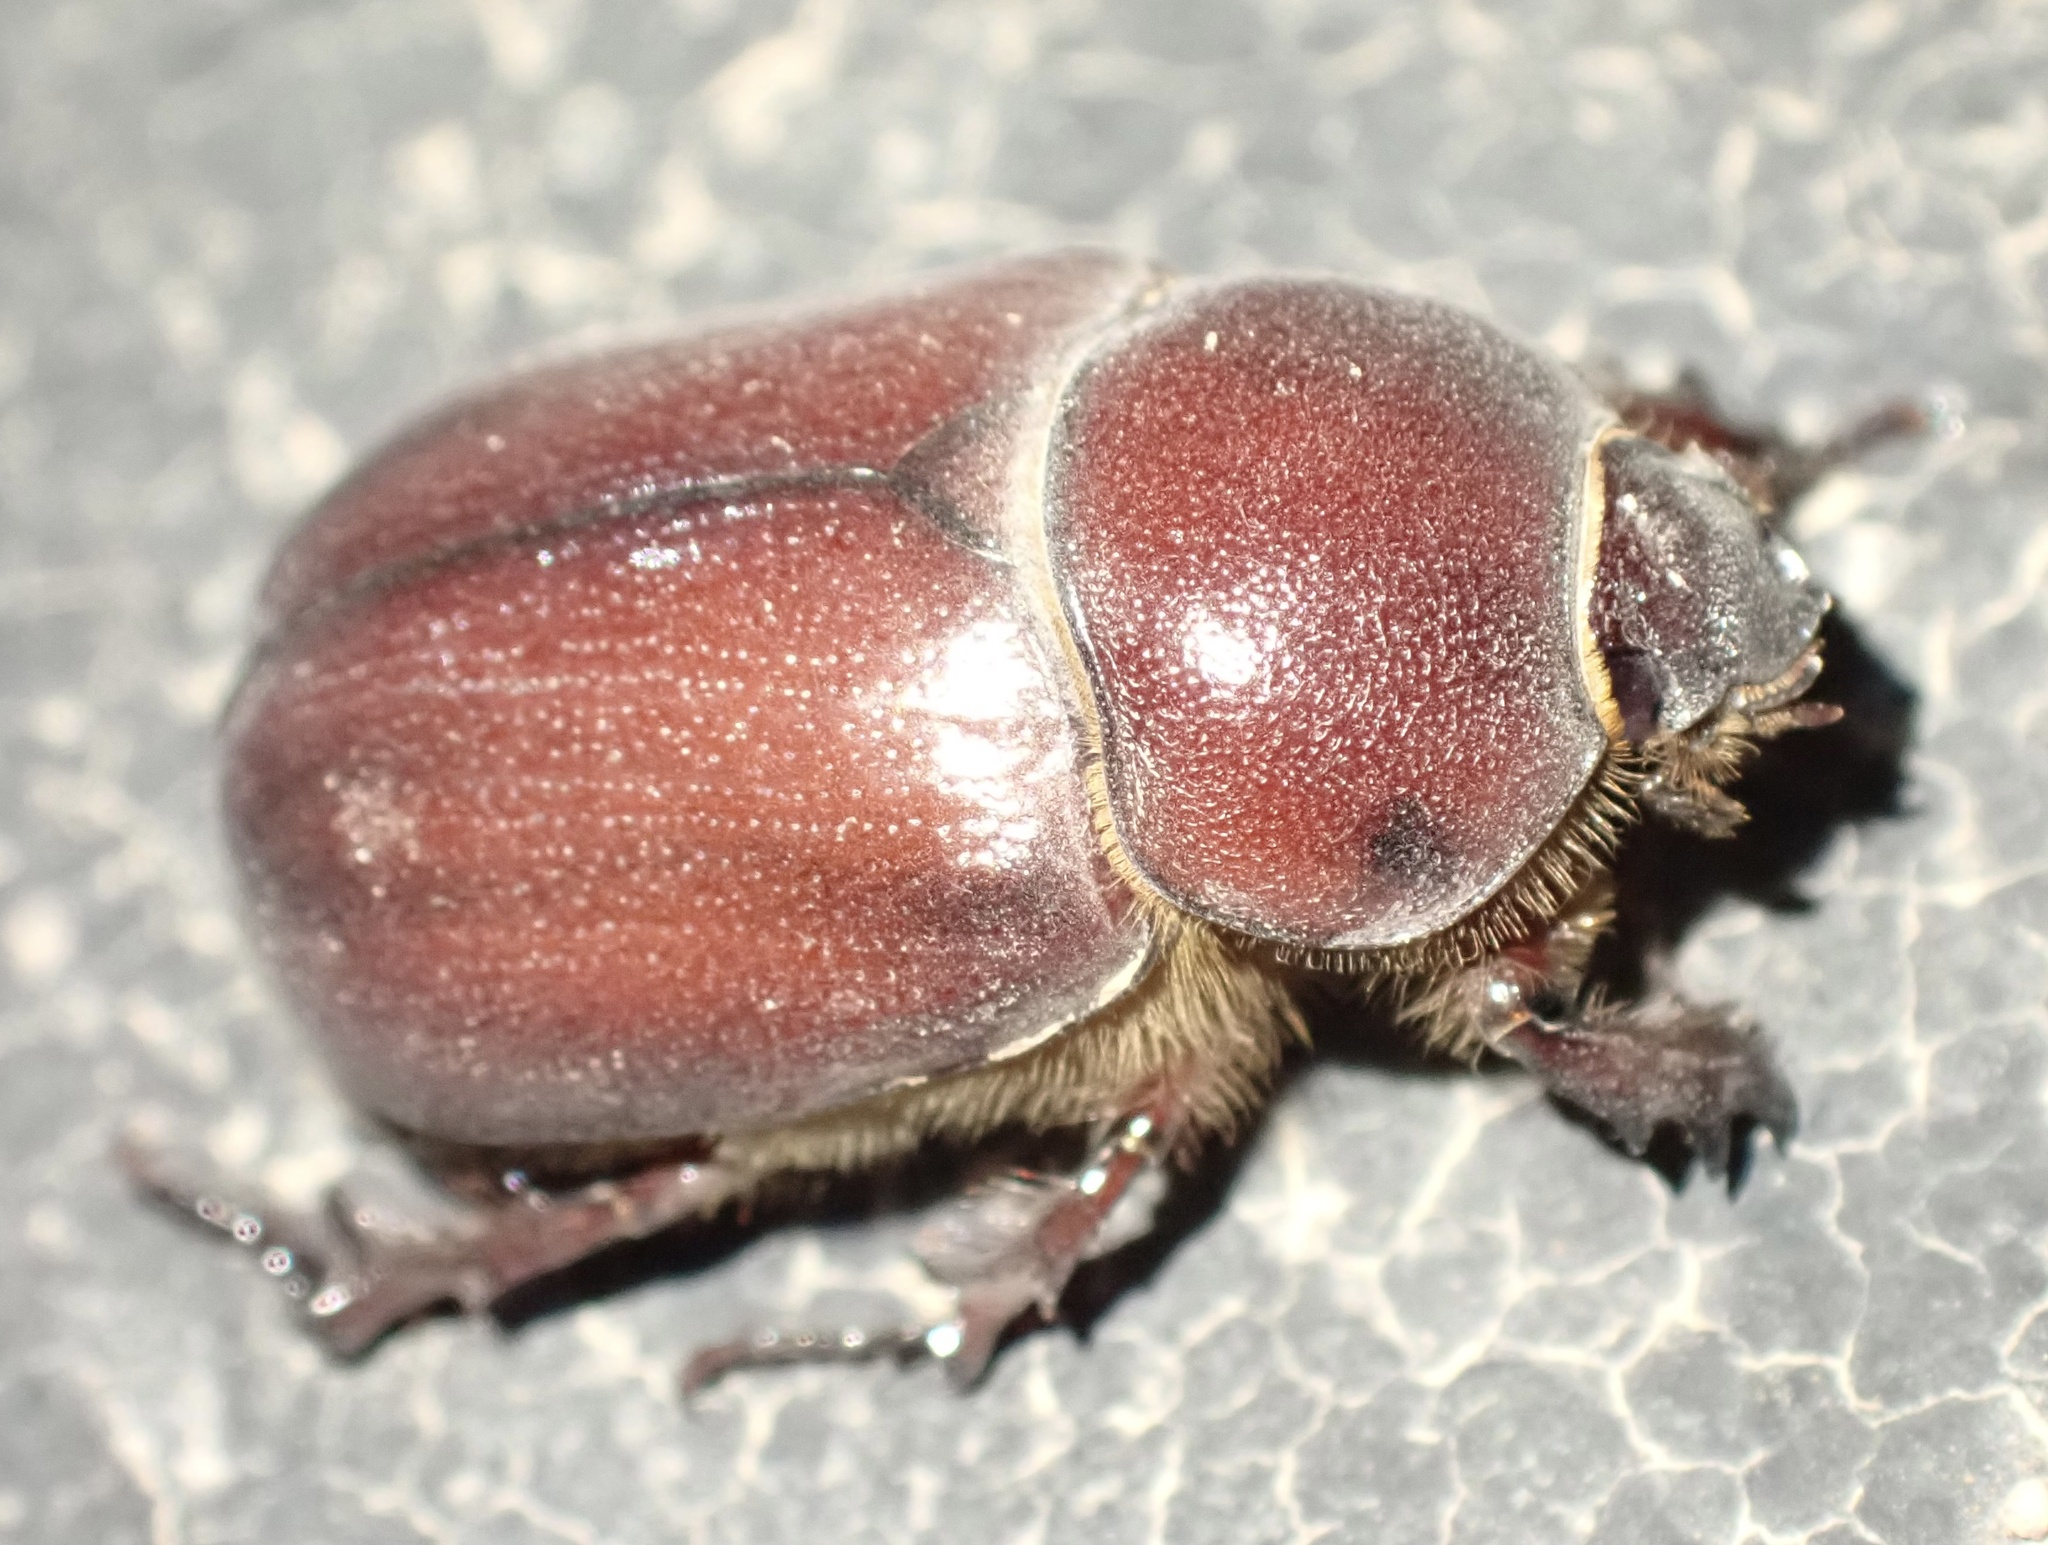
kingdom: Animalia
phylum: Arthropoda
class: Insecta
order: Coleoptera
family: Scarabaeidae
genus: Phyllognathus
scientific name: Phyllognathus excavatus
